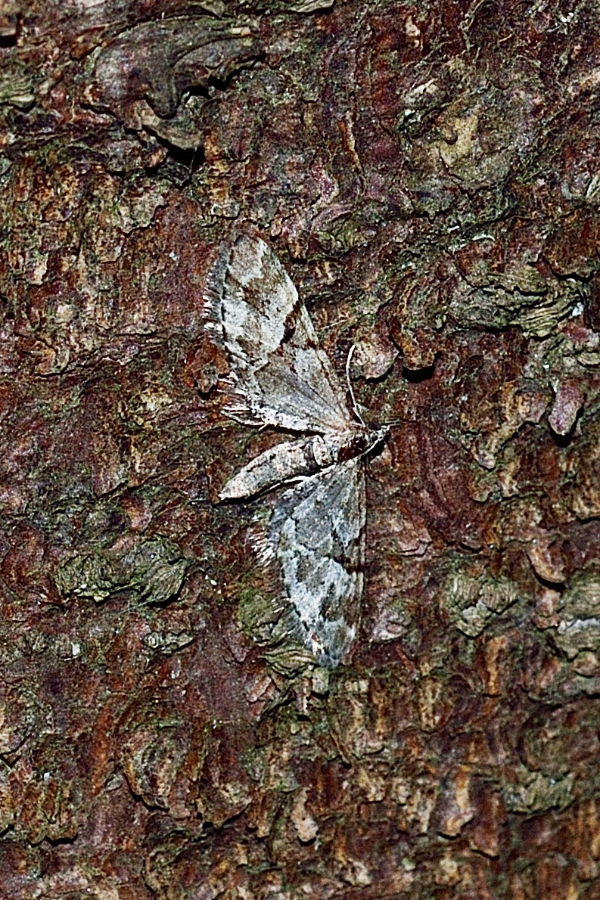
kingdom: Animalia
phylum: Arthropoda
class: Insecta
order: Lepidoptera
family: Geometridae
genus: Eupithecia
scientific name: Eupithecia lanceata
